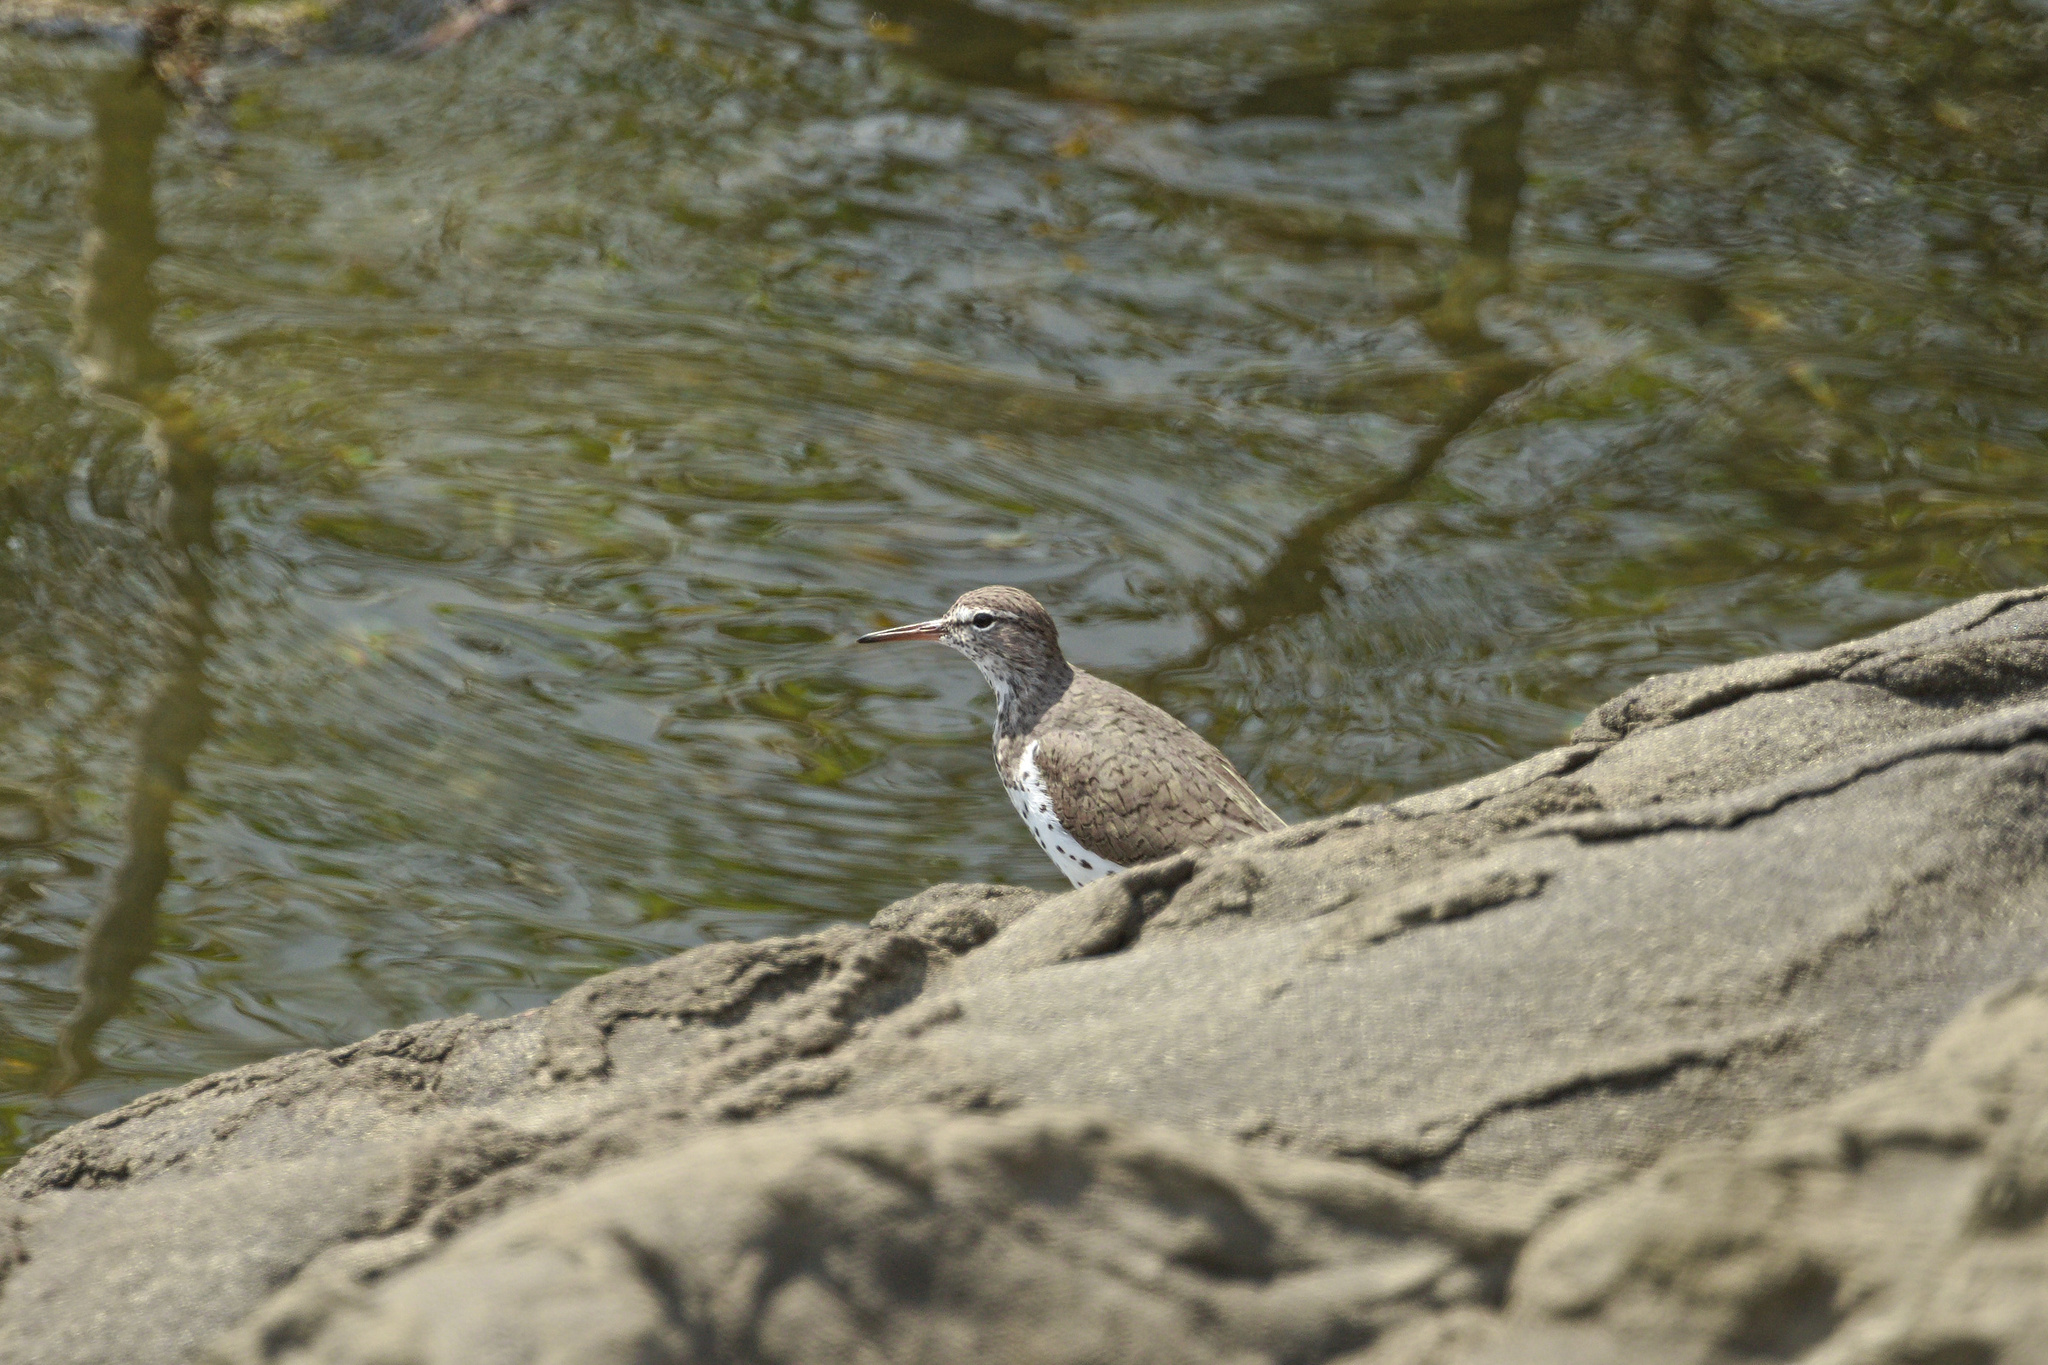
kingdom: Animalia
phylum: Chordata
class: Aves
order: Charadriiformes
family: Scolopacidae
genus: Actitis
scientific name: Actitis macularius
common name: Spotted sandpiper
